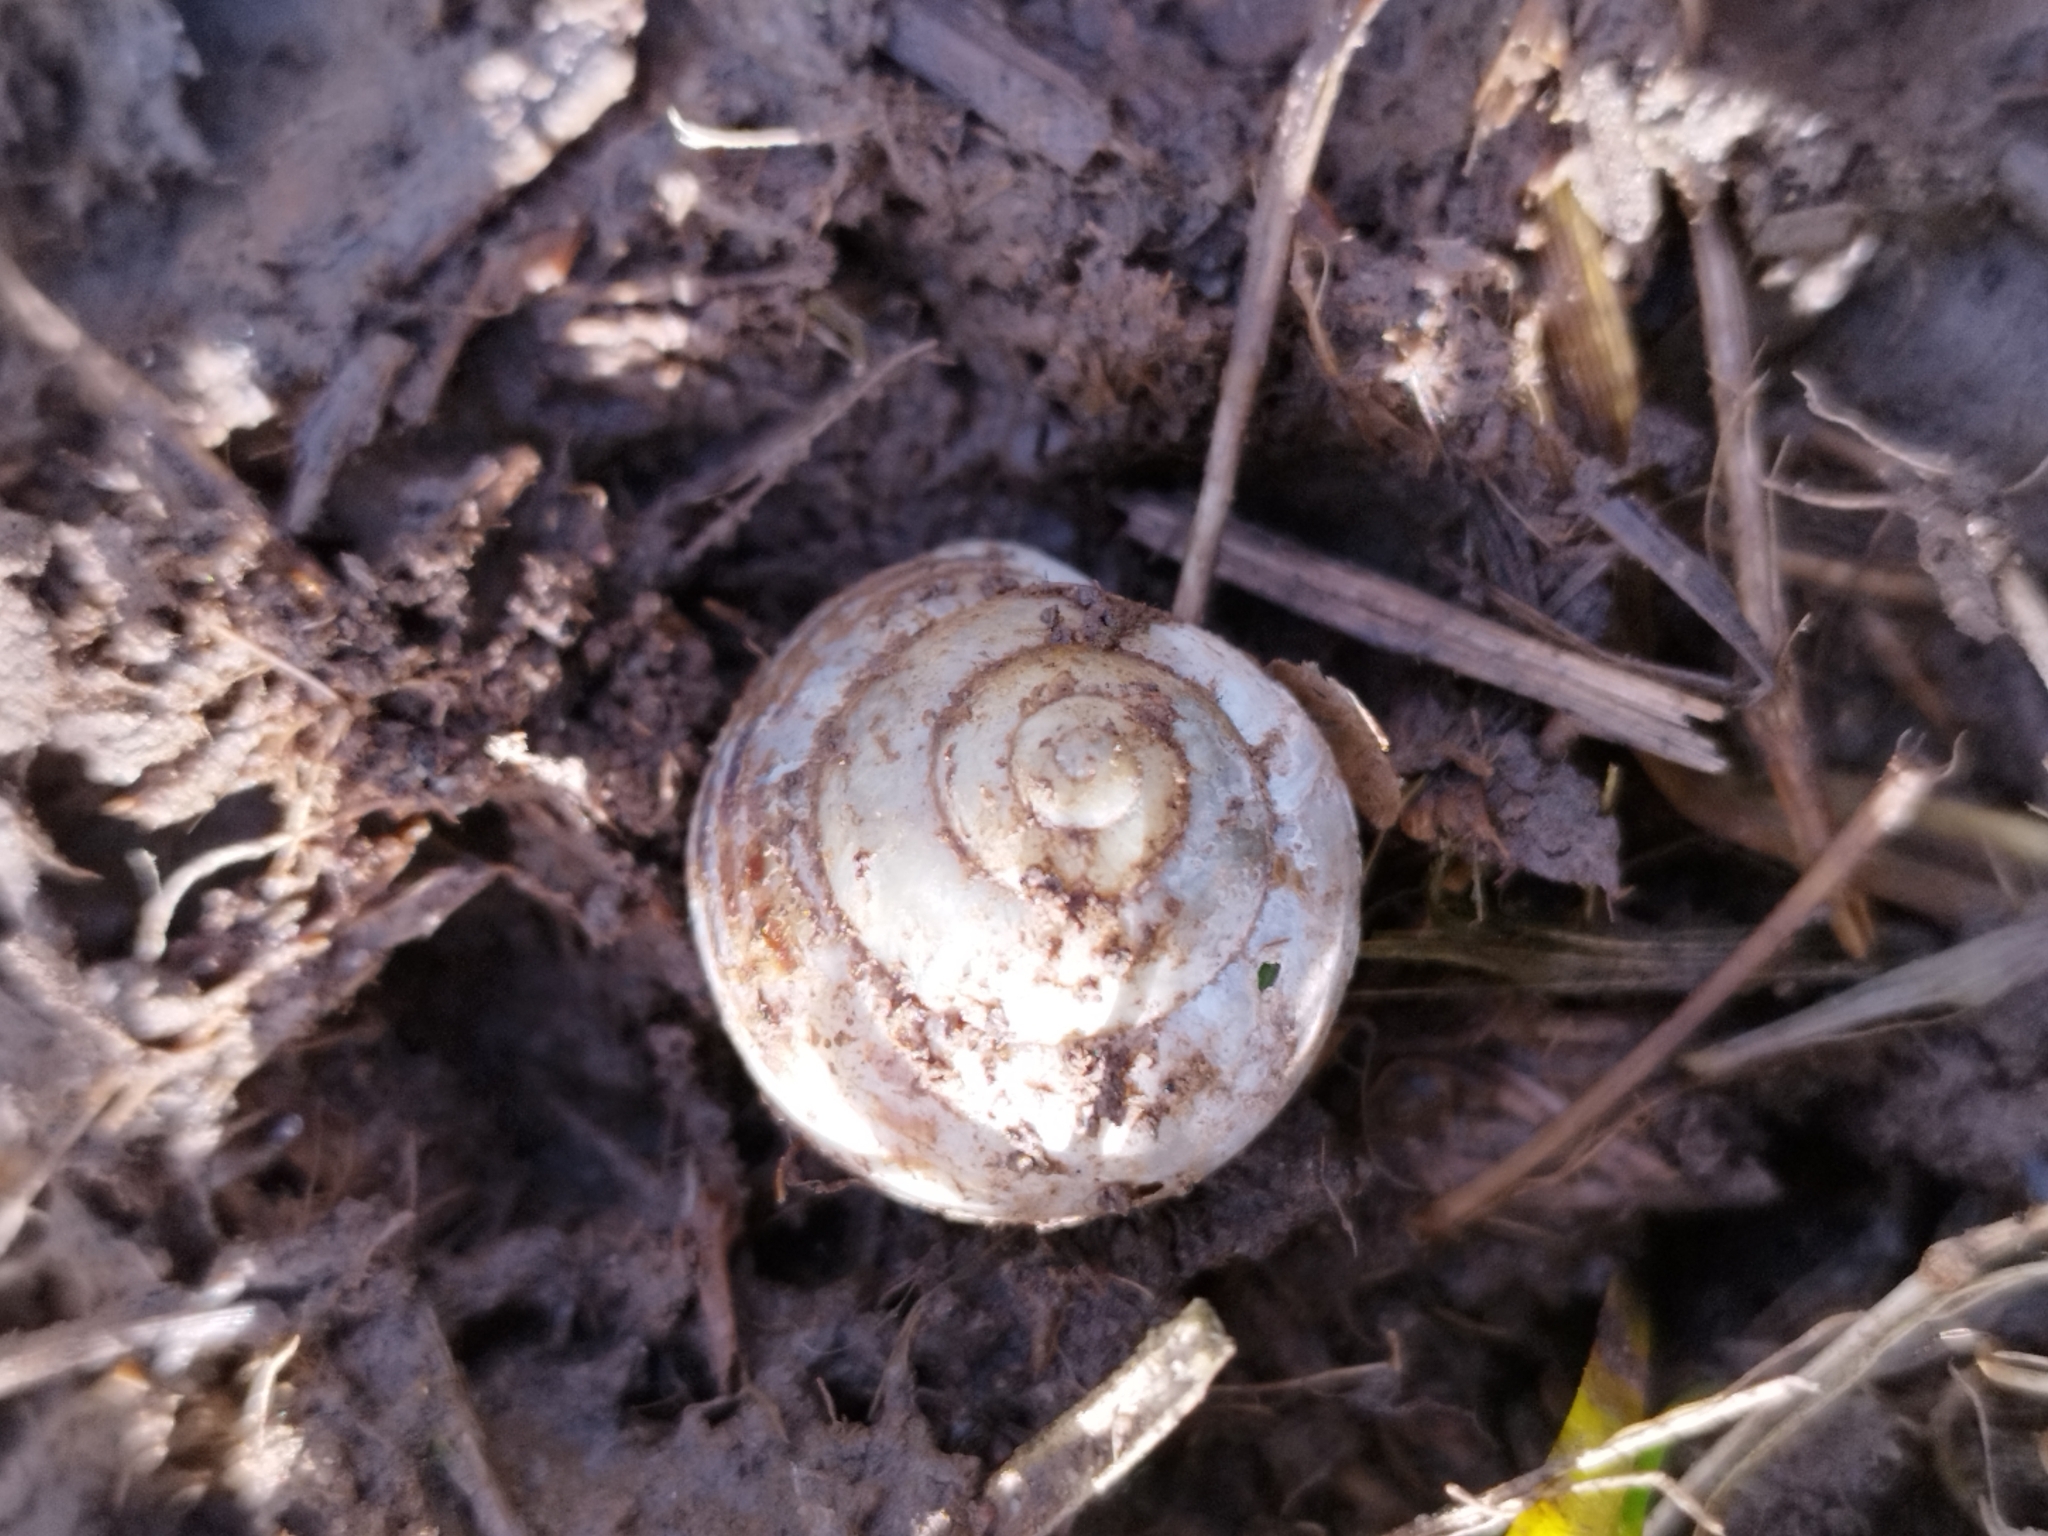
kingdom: Animalia
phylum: Mollusca
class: Gastropoda
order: Stylommatophora
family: Helicidae
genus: Cepaea
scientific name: Cepaea hortensis
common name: White-lip gardensnail
